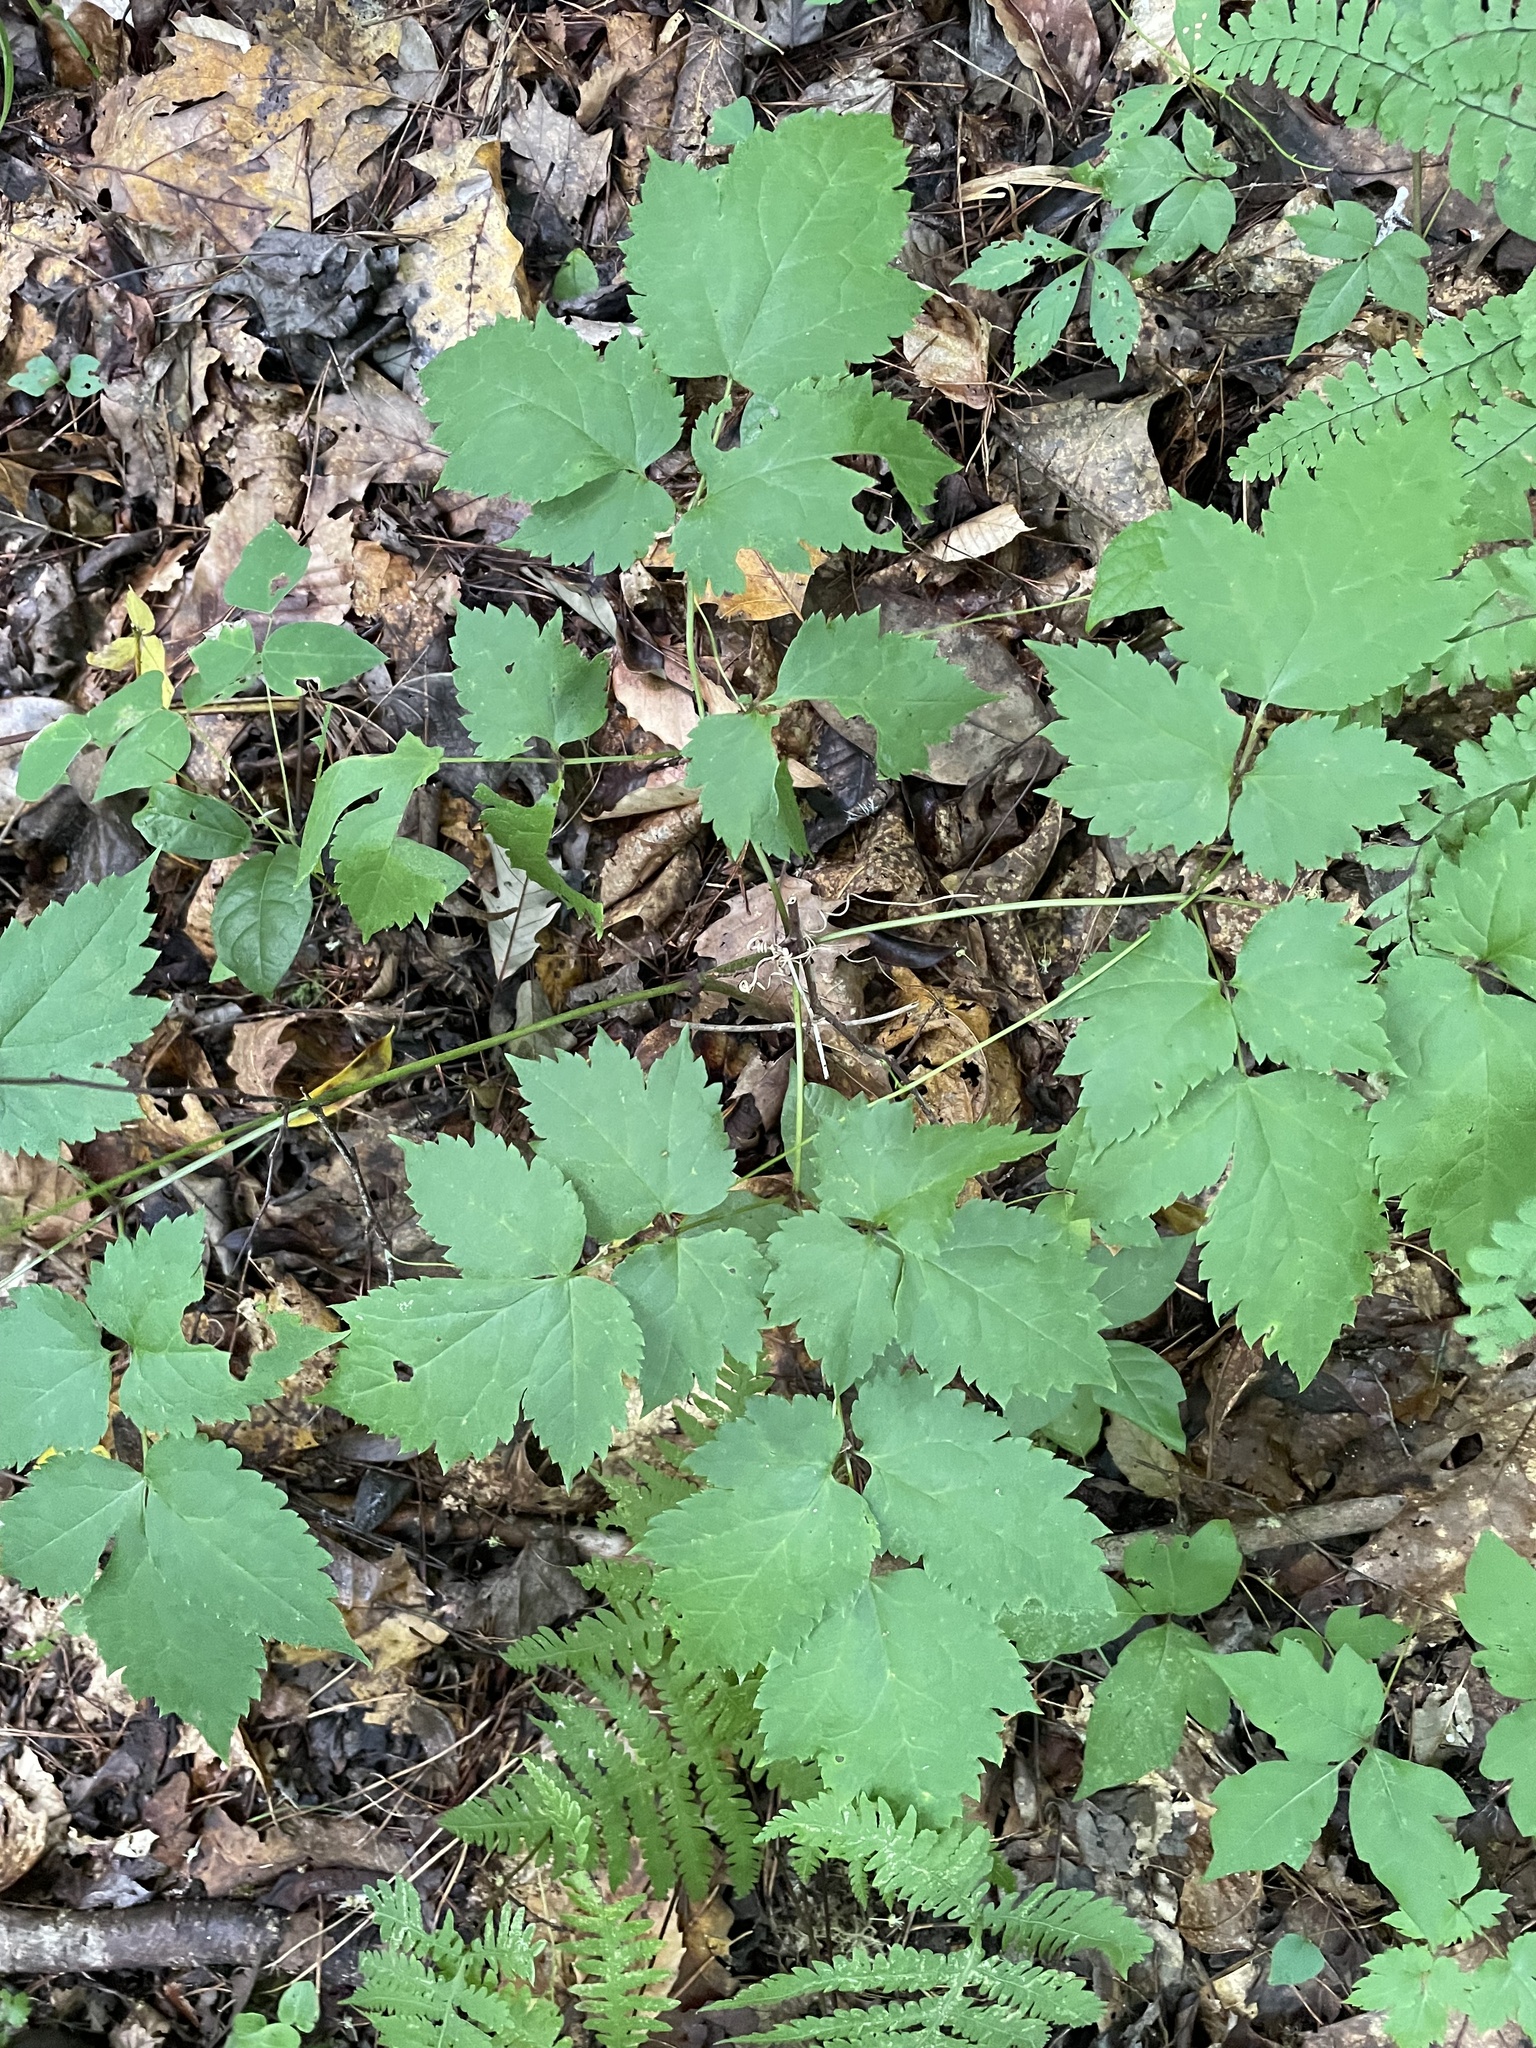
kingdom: Plantae
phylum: Tracheophyta
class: Magnoliopsida
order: Ranunculales
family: Ranunculaceae
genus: Actaea
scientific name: Actaea pachypoda
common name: Doll's-eyes
